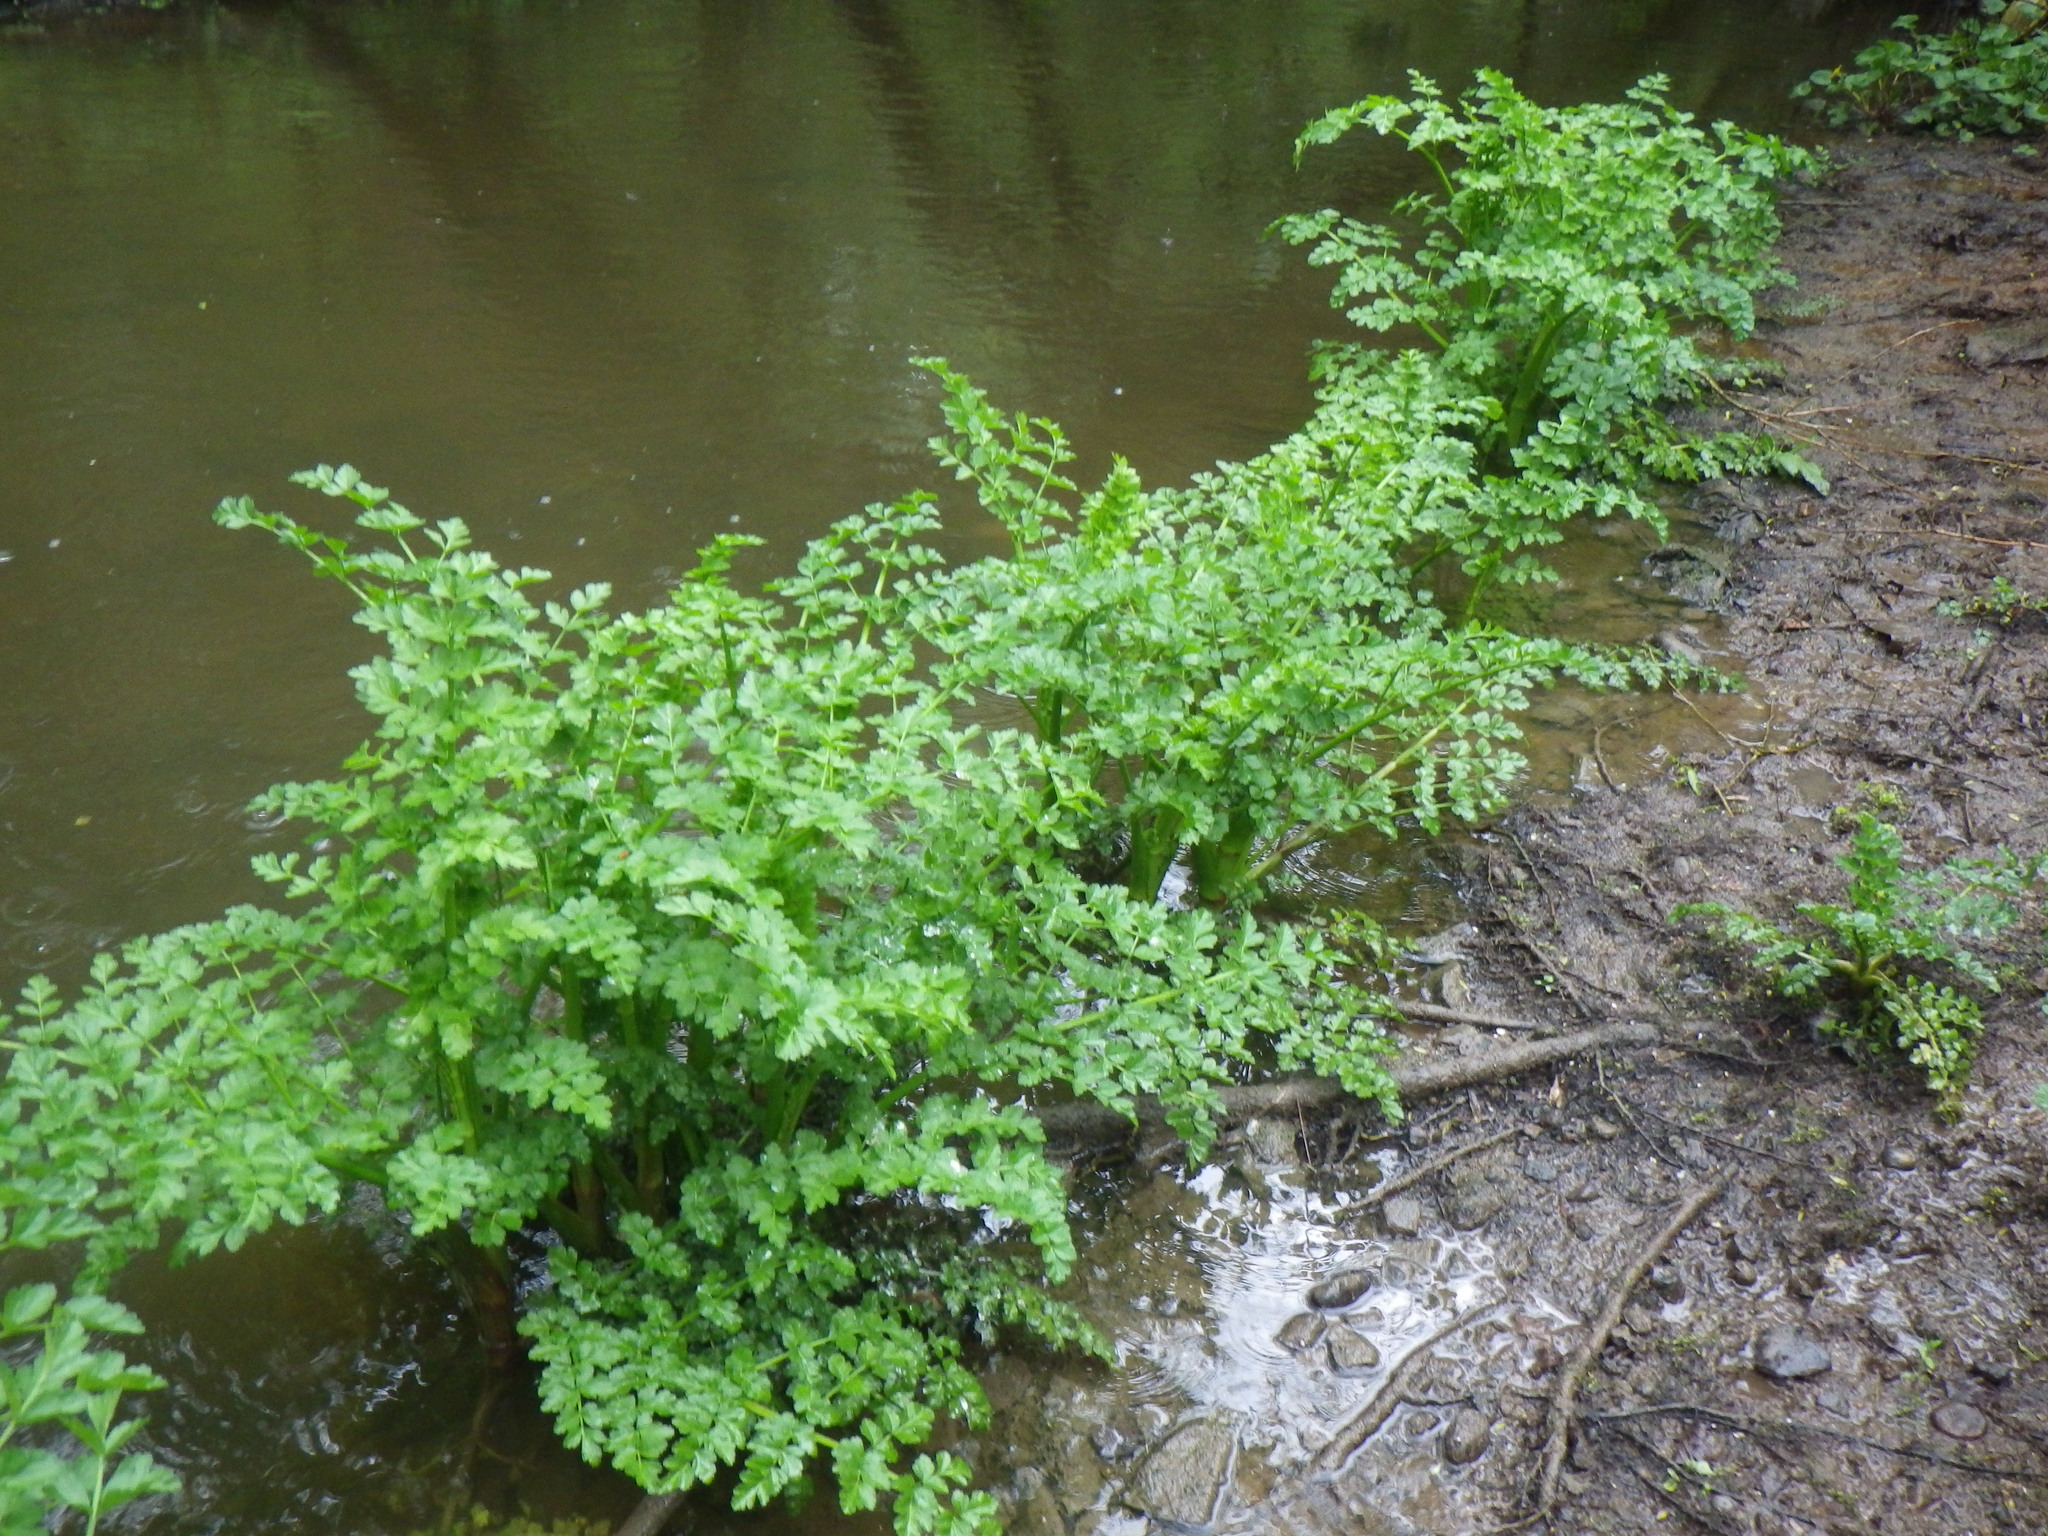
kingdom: Plantae
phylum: Tracheophyta
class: Magnoliopsida
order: Apiales
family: Apiaceae
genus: Oenanthe
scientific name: Oenanthe crocata
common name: Hemlock water-dropwort
